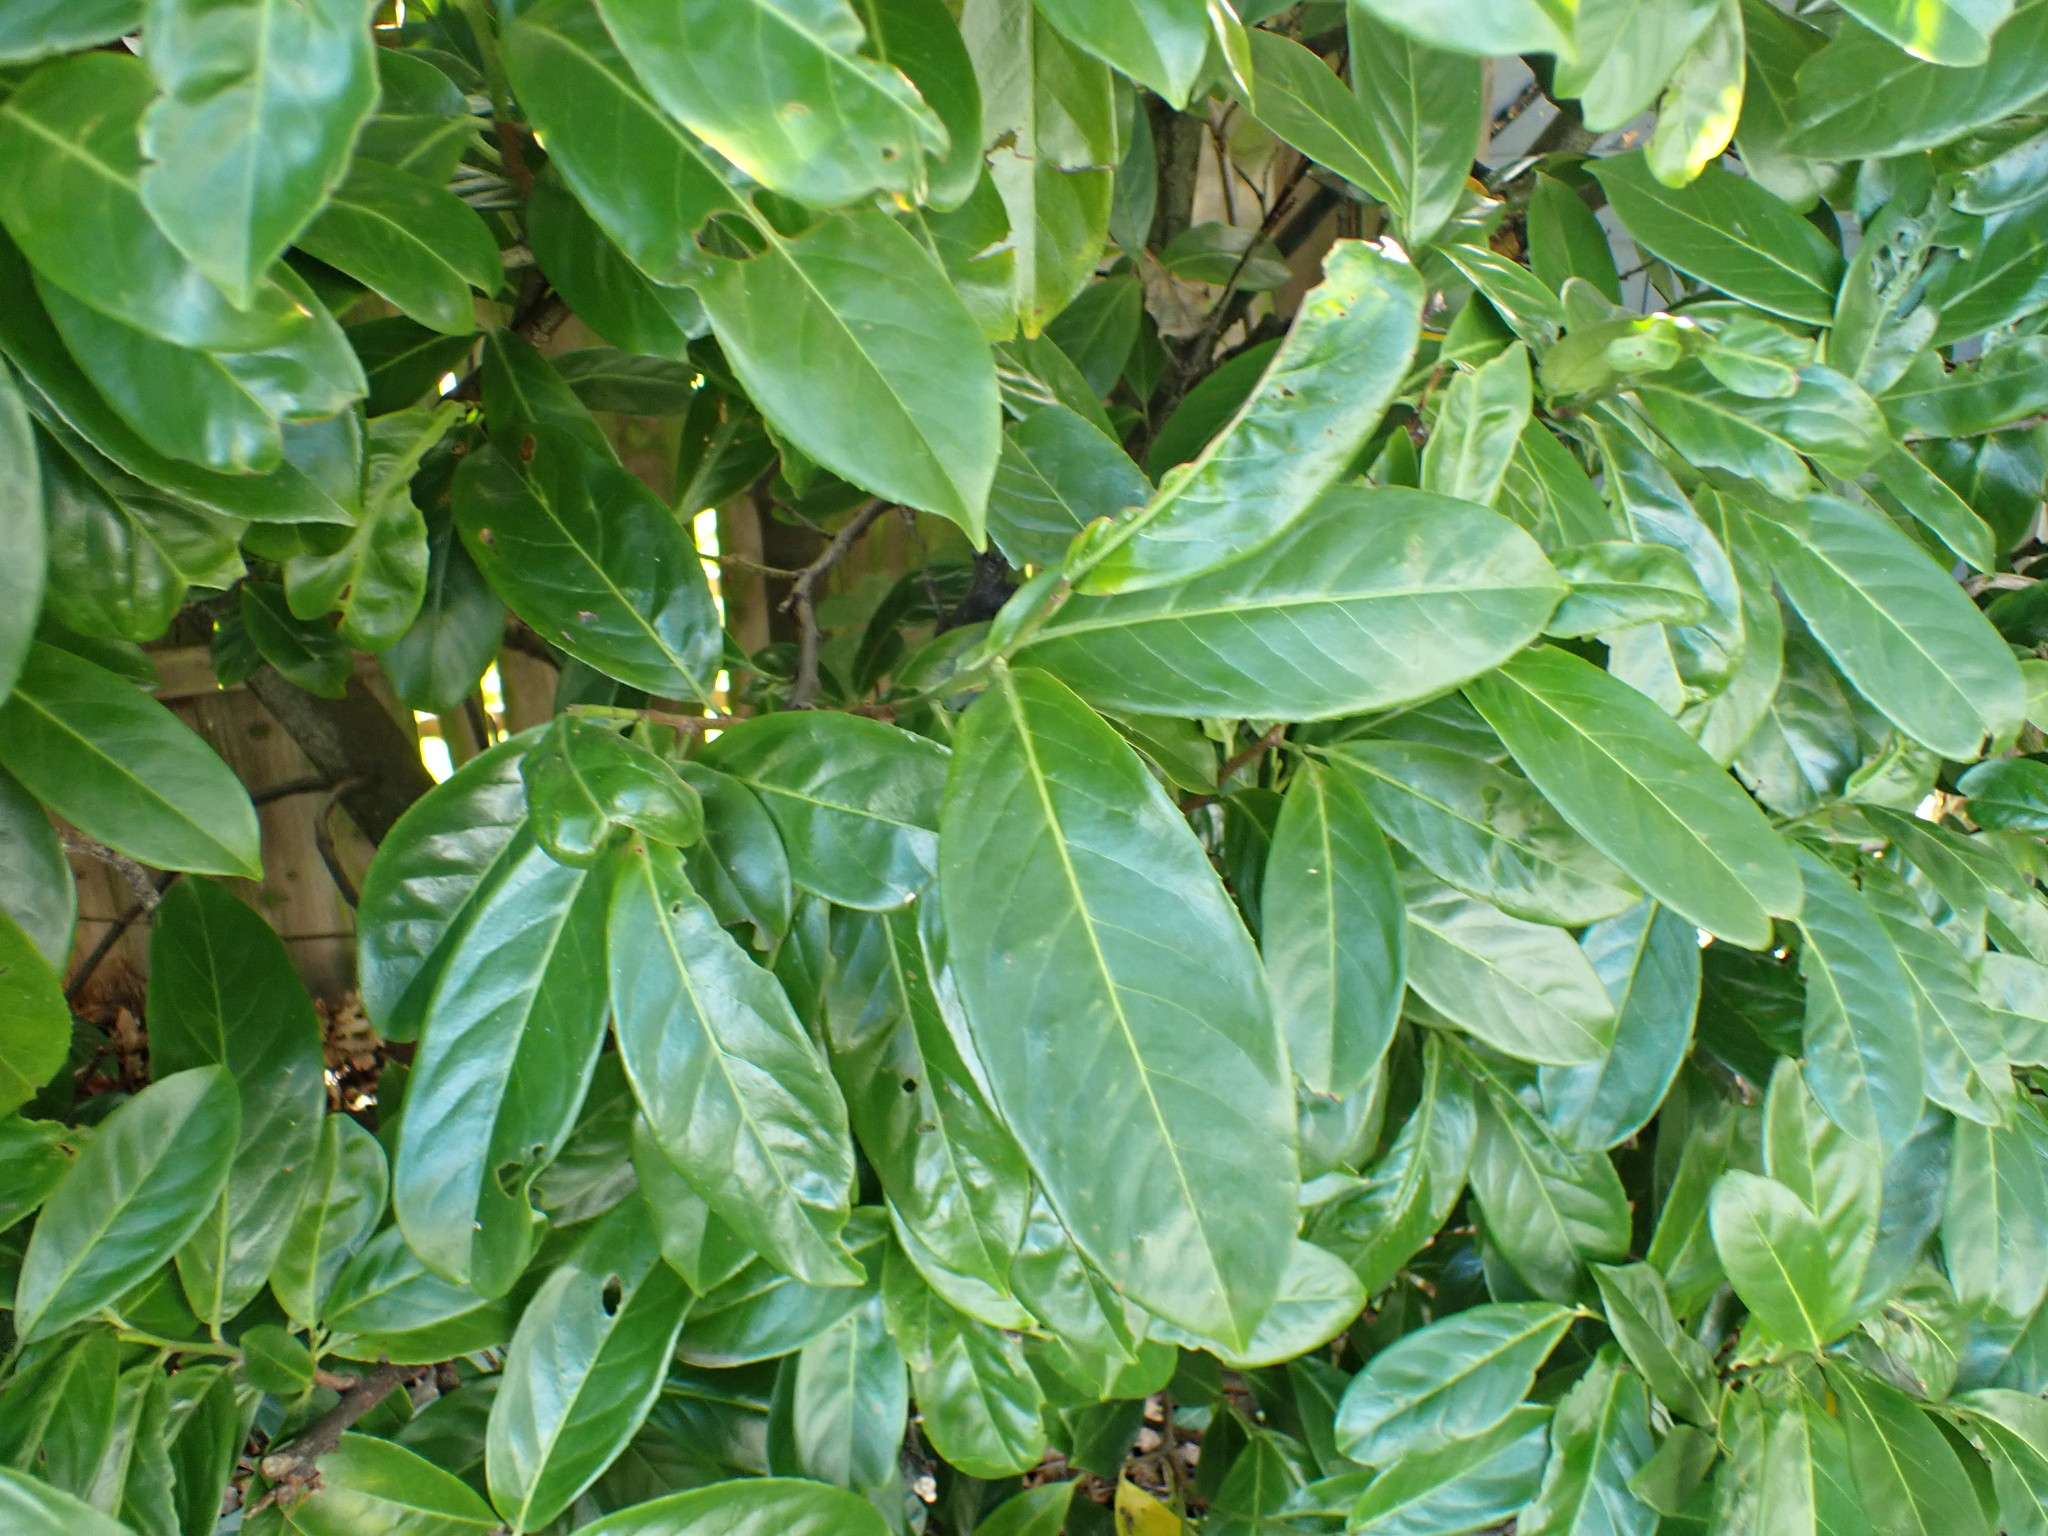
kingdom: Plantae
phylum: Tracheophyta
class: Magnoliopsida
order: Rosales
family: Rosaceae
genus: Prunus
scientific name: Prunus laurocerasus
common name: Cherry laurel
